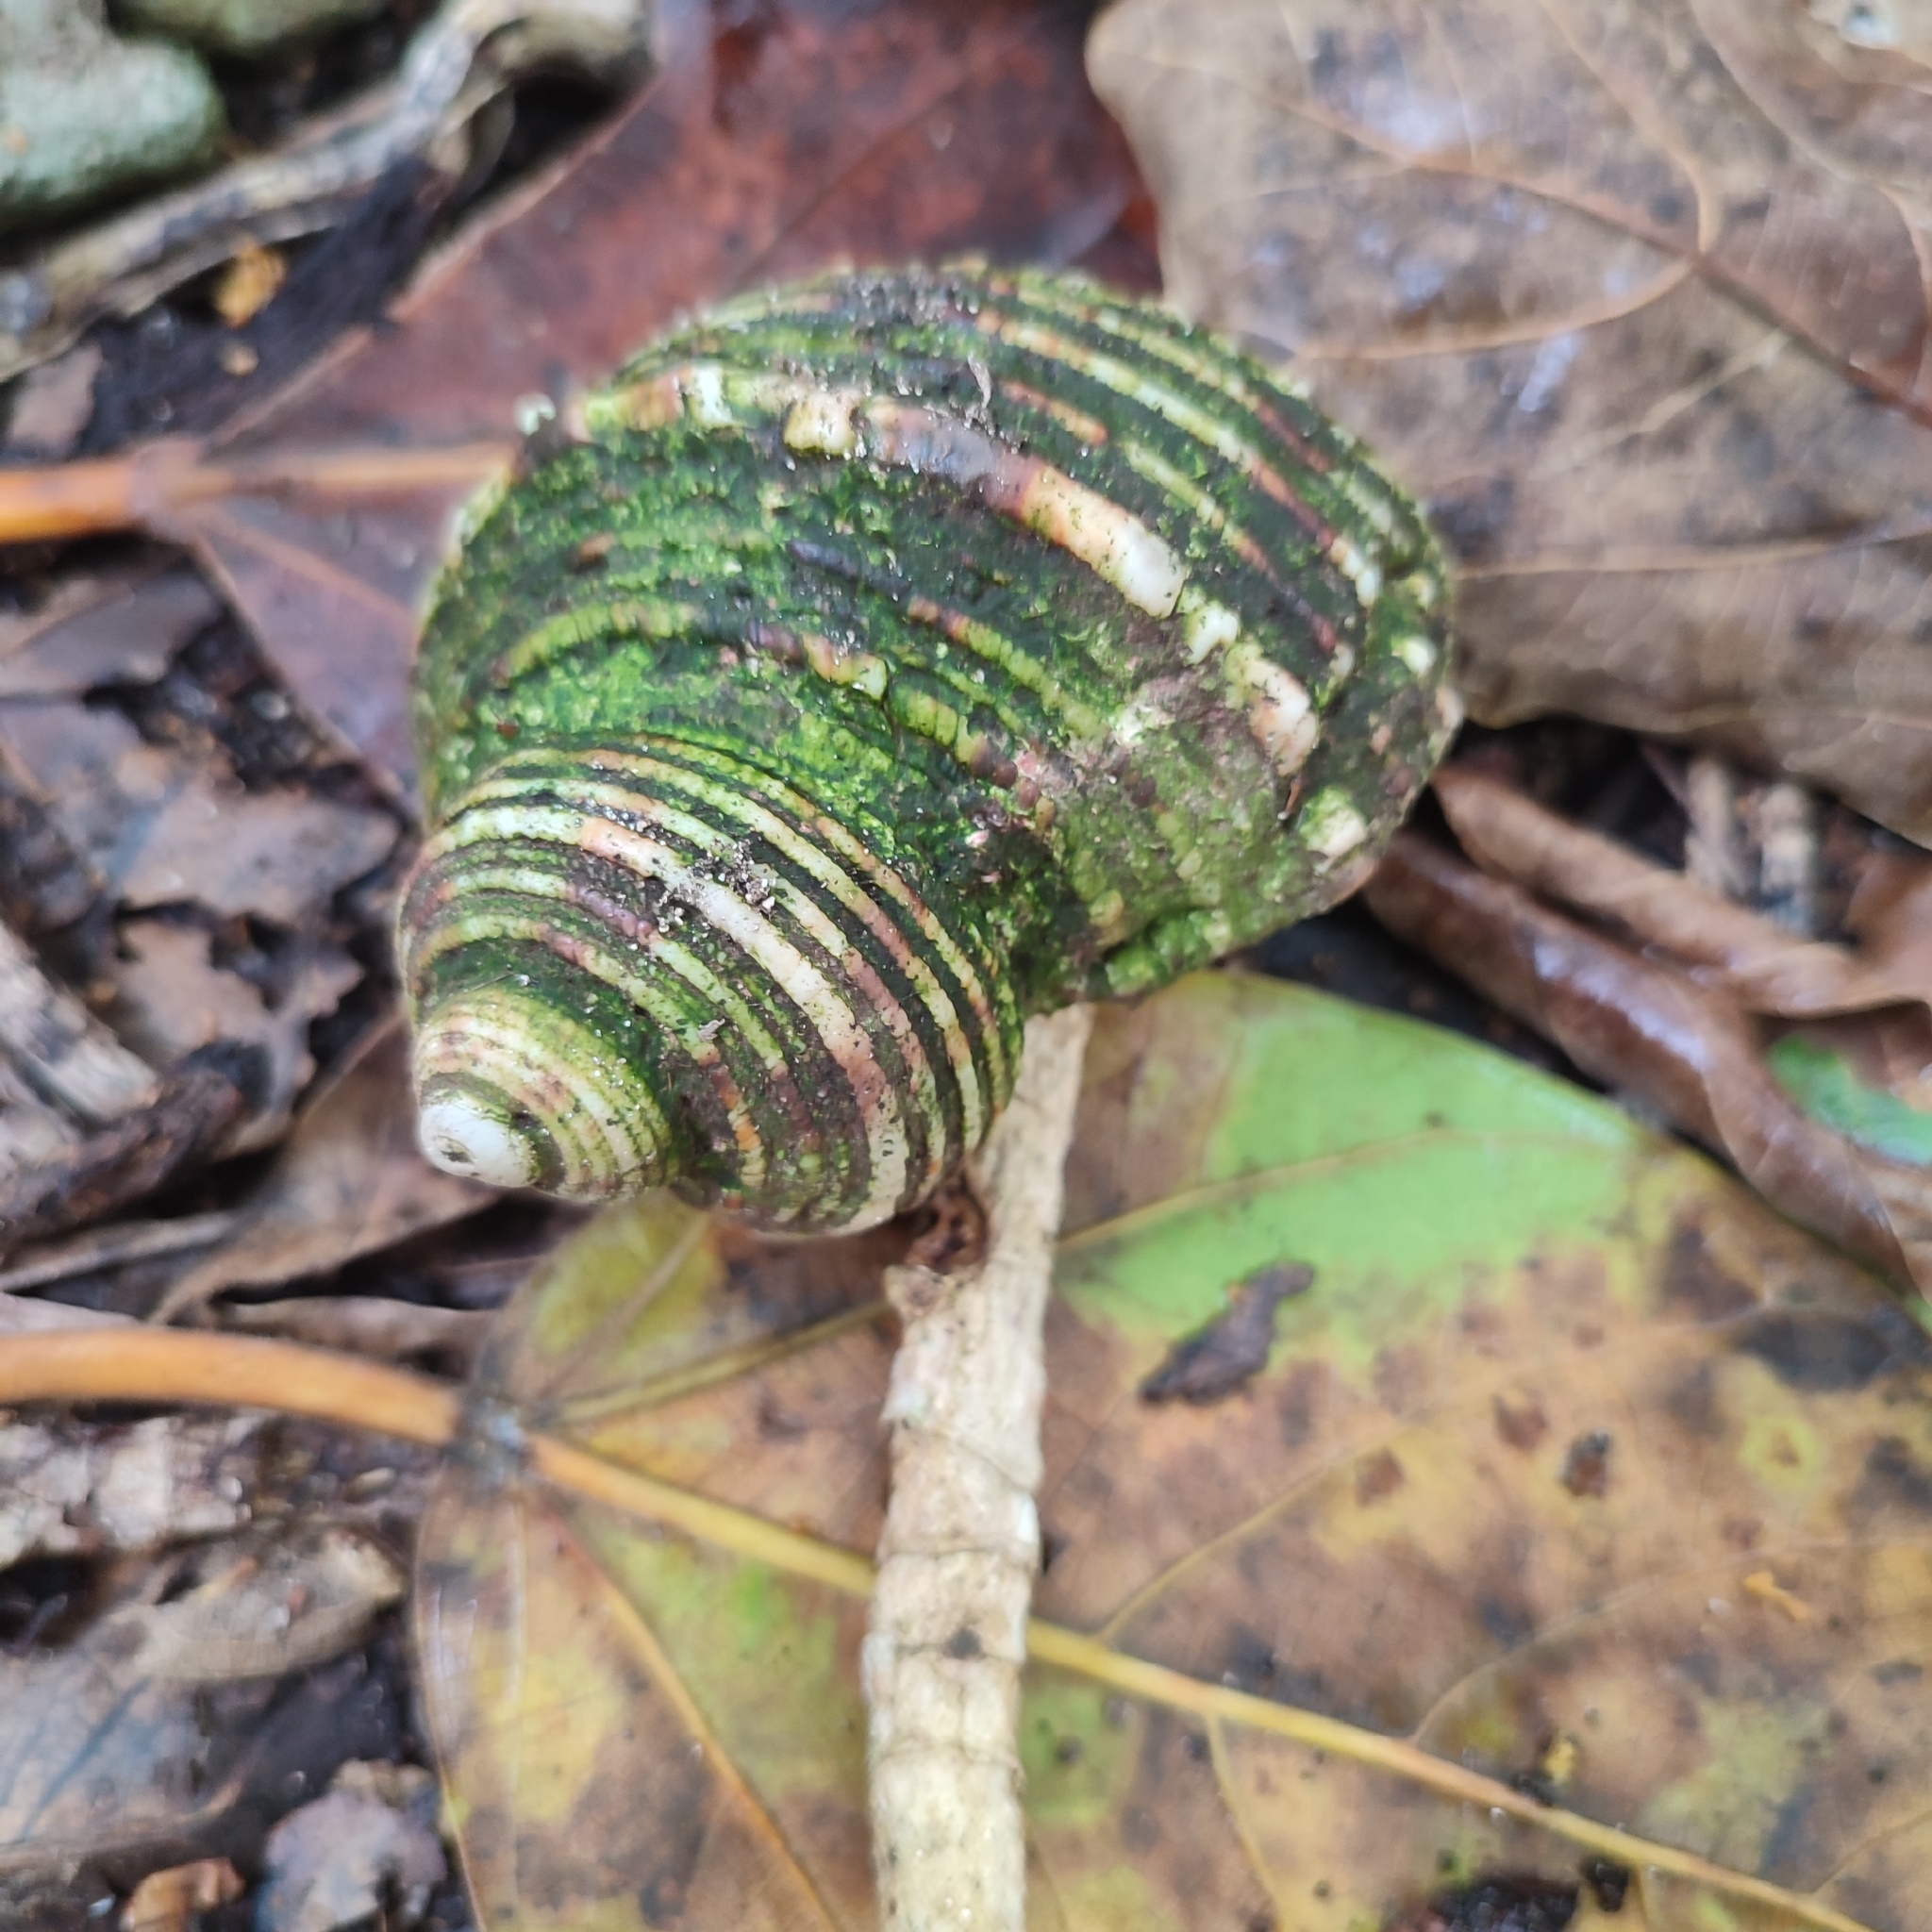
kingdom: Animalia
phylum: Arthropoda
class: Malacostraca
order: Decapoda
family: Coenobitidae
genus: Coenobita
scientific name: Coenobita brevimanus
